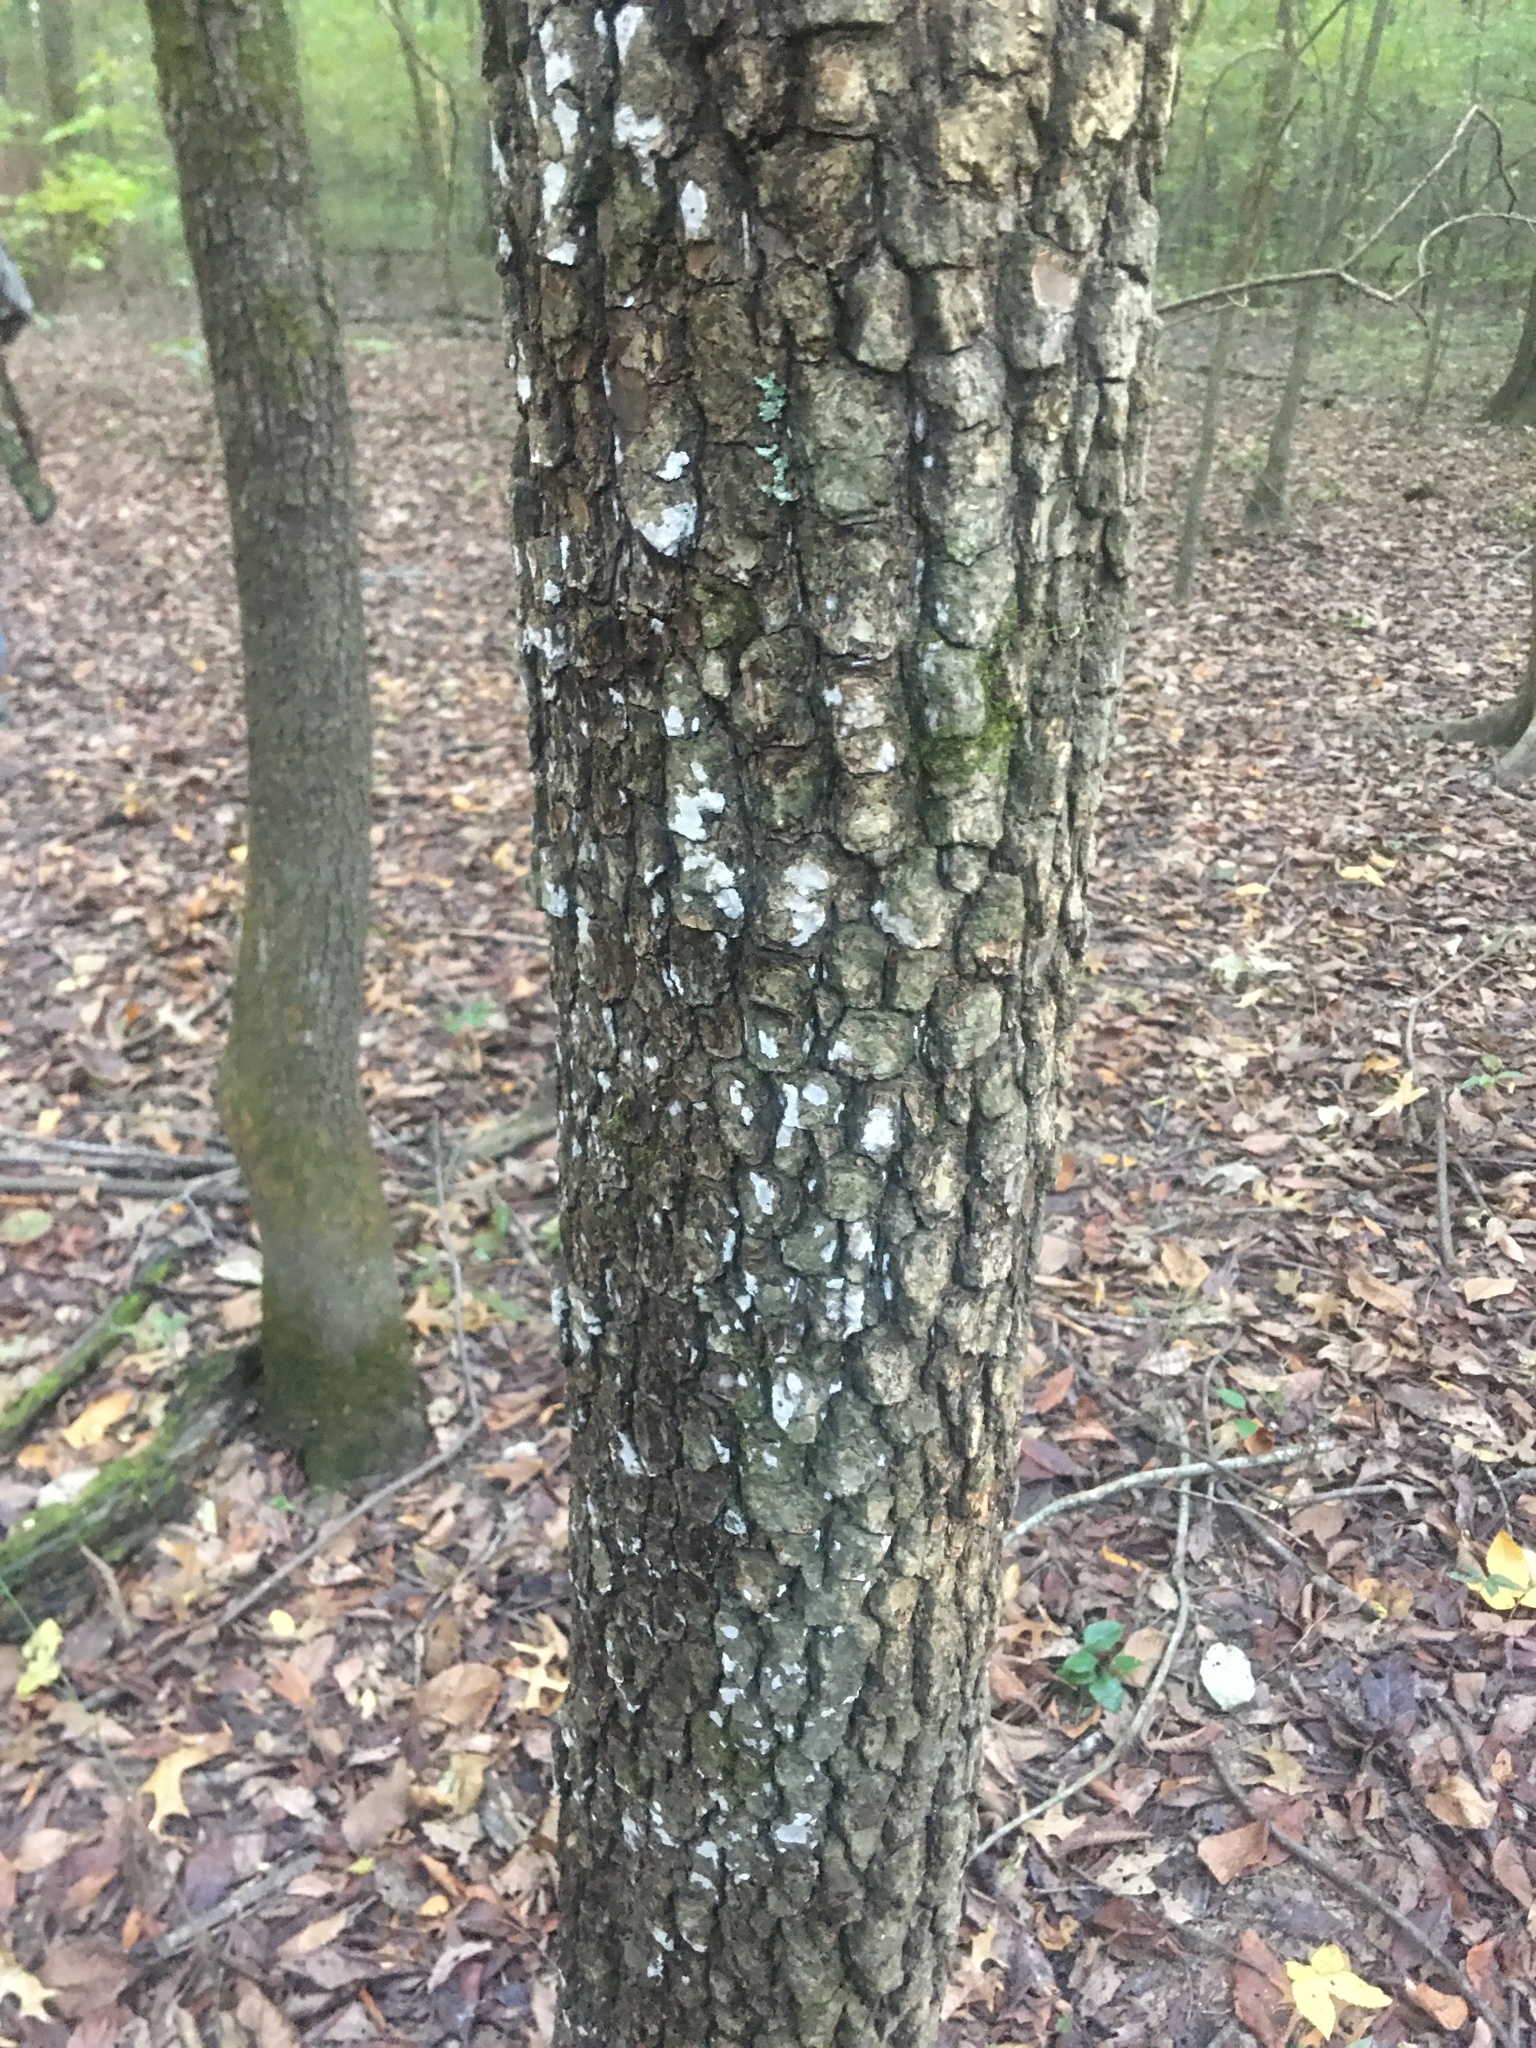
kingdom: Plantae
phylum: Tracheophyta
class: Magnoliopsida
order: Ericales
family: Ebenaceae
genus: Diospyros
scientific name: Diospyros virginiana
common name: Persimmon
